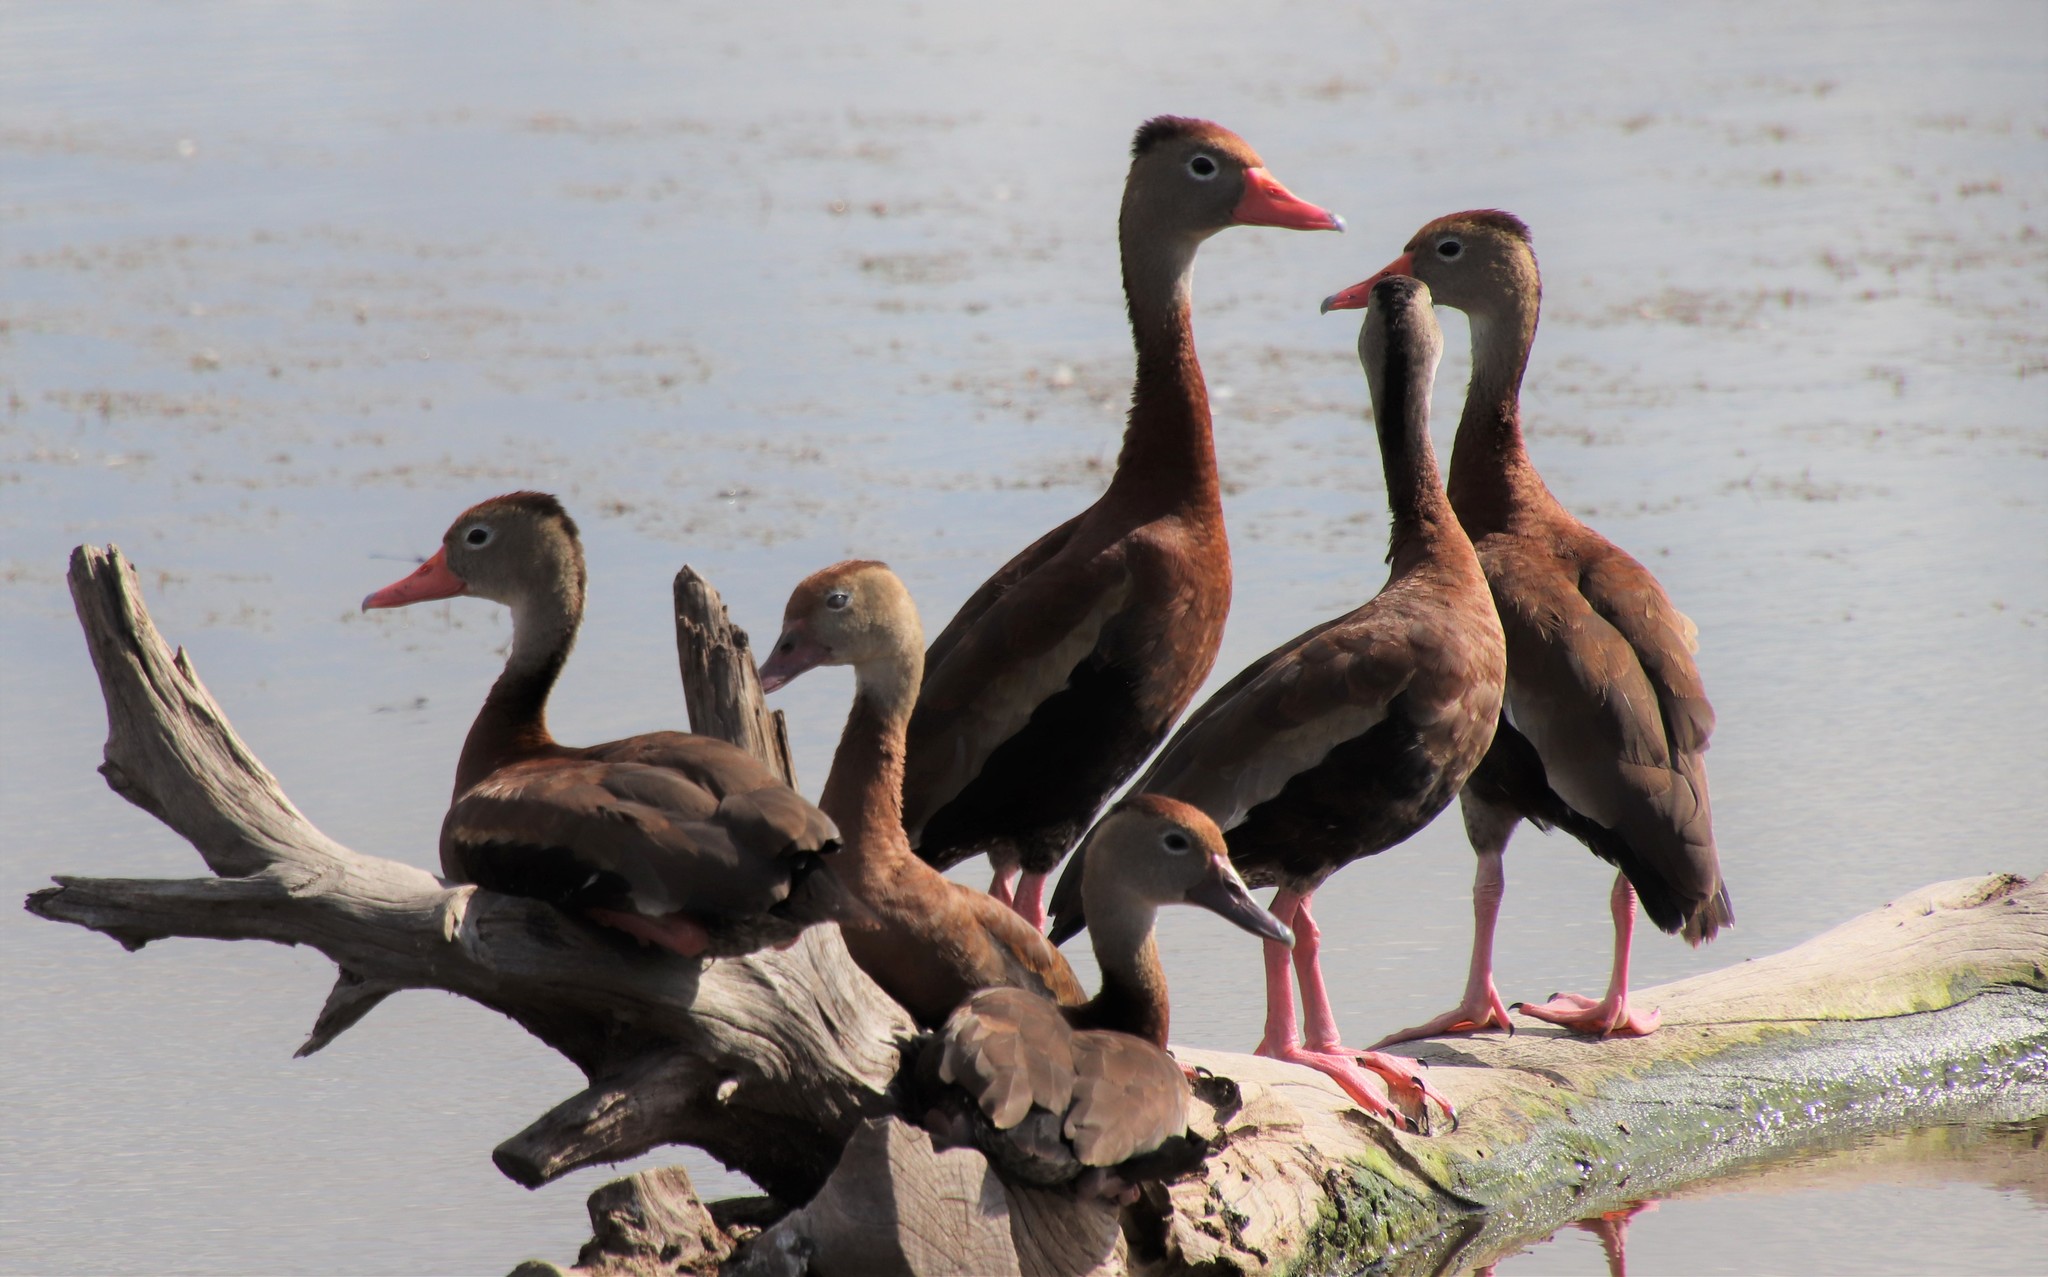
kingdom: Animalia
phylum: Chordata
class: Aves
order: Anseriformes
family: Anatidae
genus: Dendrocygna
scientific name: Dendrocygna autumnalis
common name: Black-bellied whistling duck
